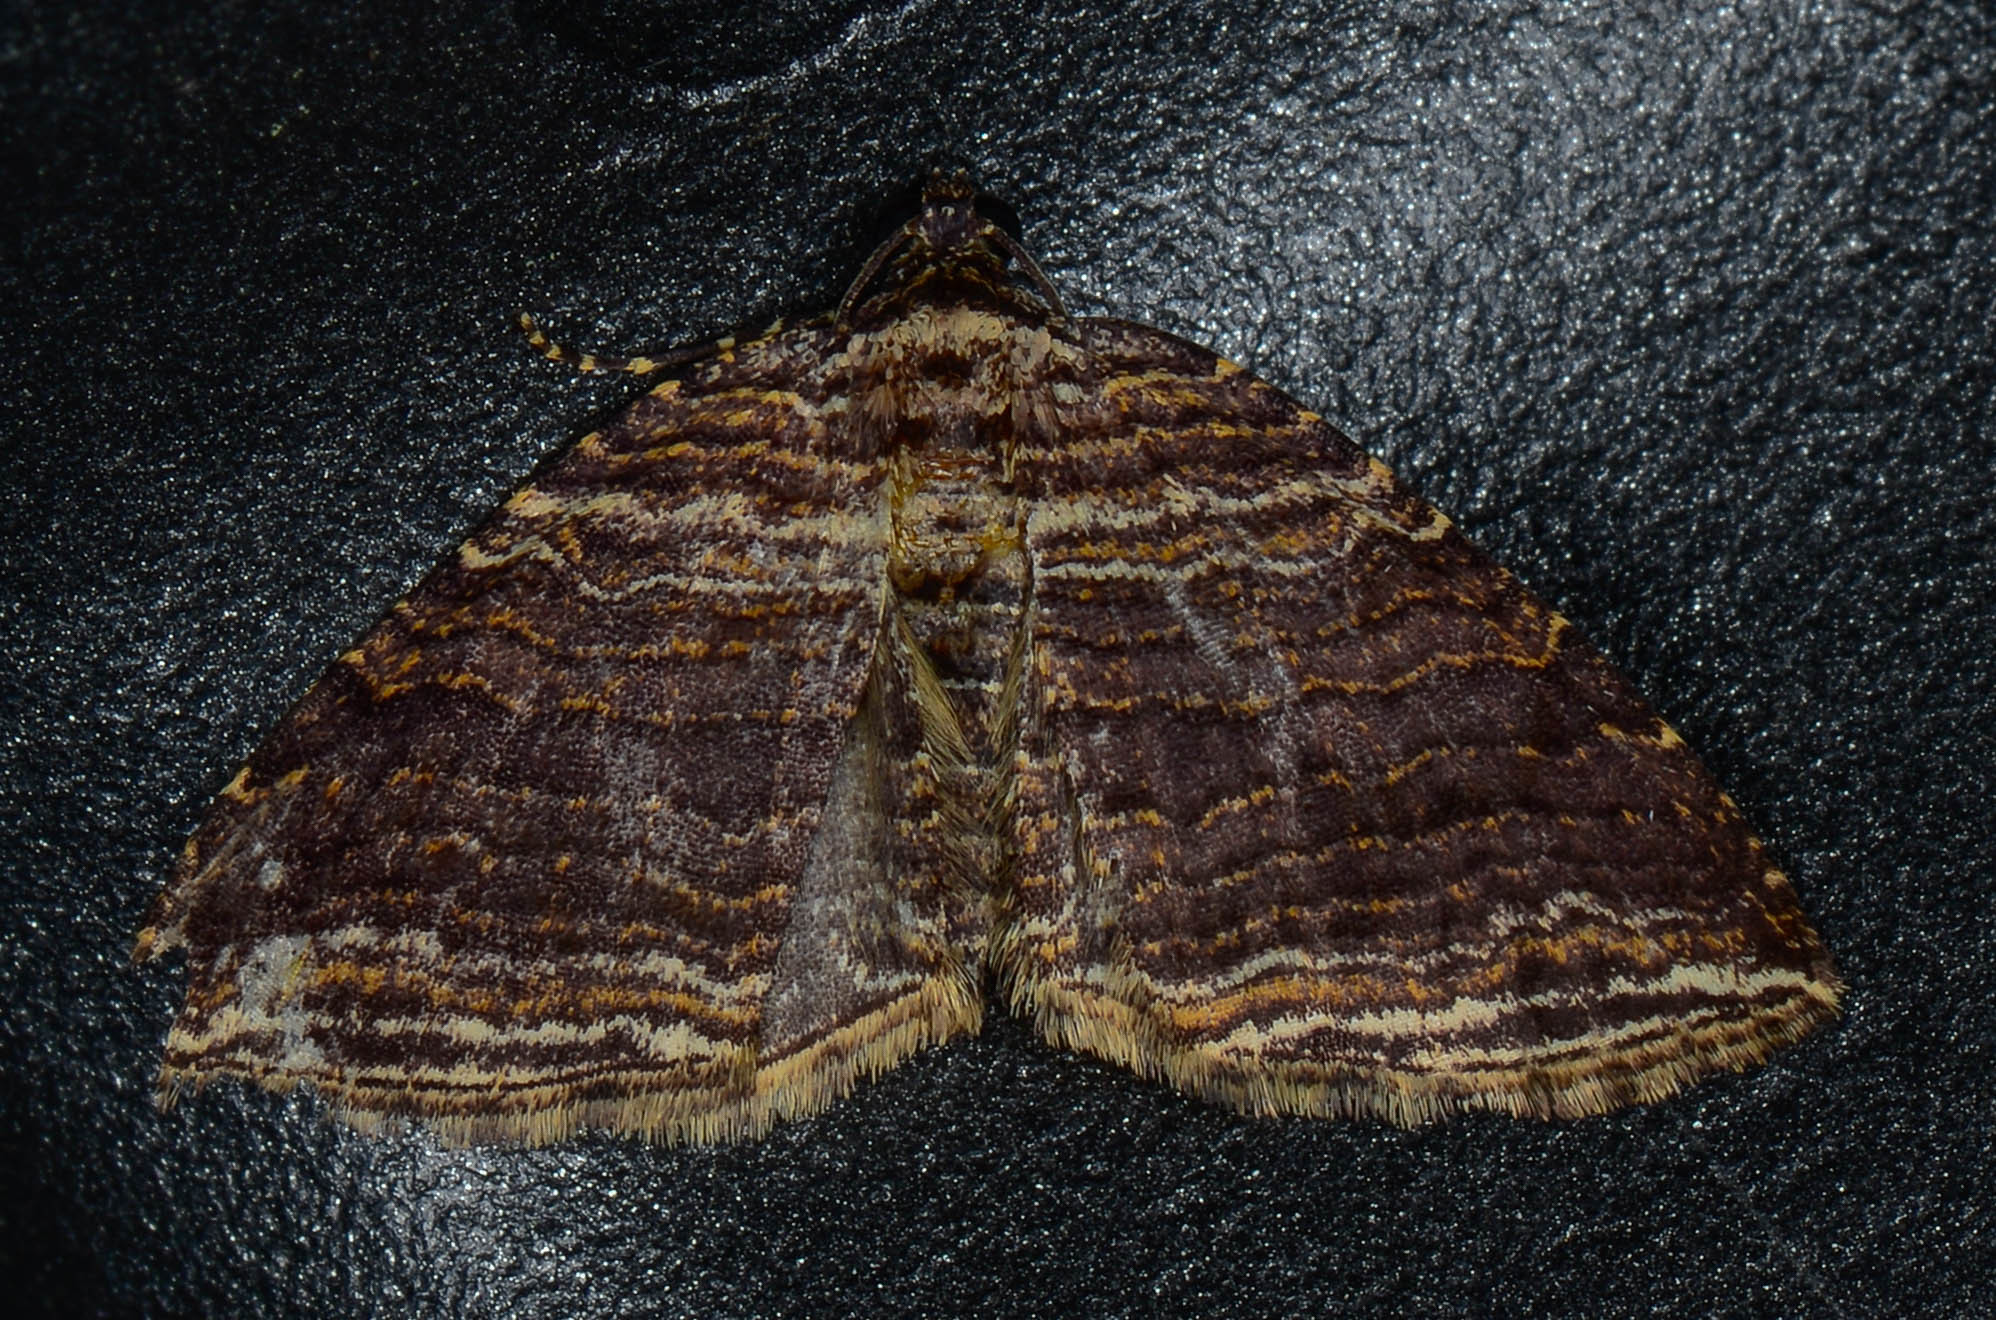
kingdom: Animalia
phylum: Arthropoda
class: Insecta
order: Lepidoptera
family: Geometridae
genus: Anticlea
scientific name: Anticlea multiferata
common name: Many-lined carpet
